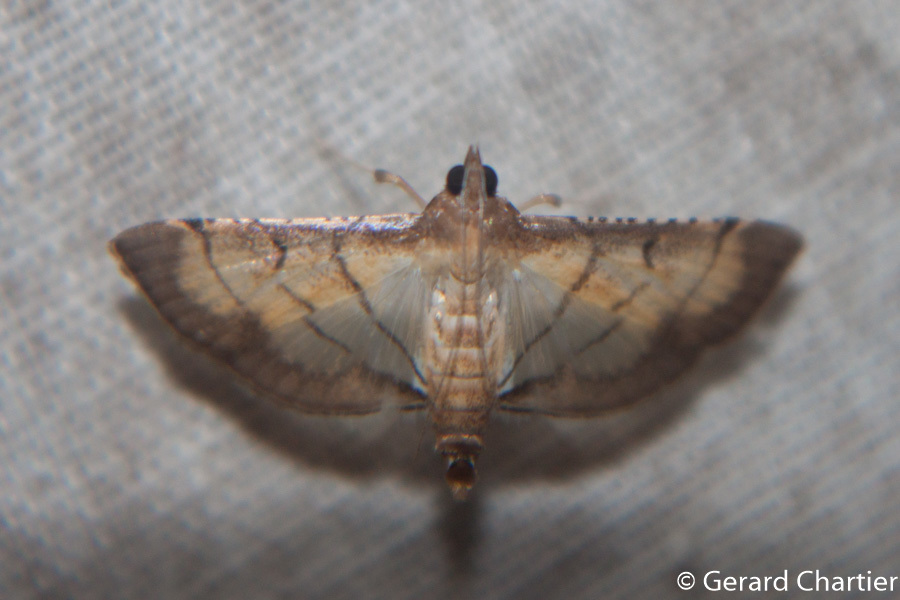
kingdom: Animalia
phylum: Arthropoda
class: Insecta
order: Lepidoptera
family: Crambidae
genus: Cnaphalocrocis
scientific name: Cnaphalocrocis poeyalis
